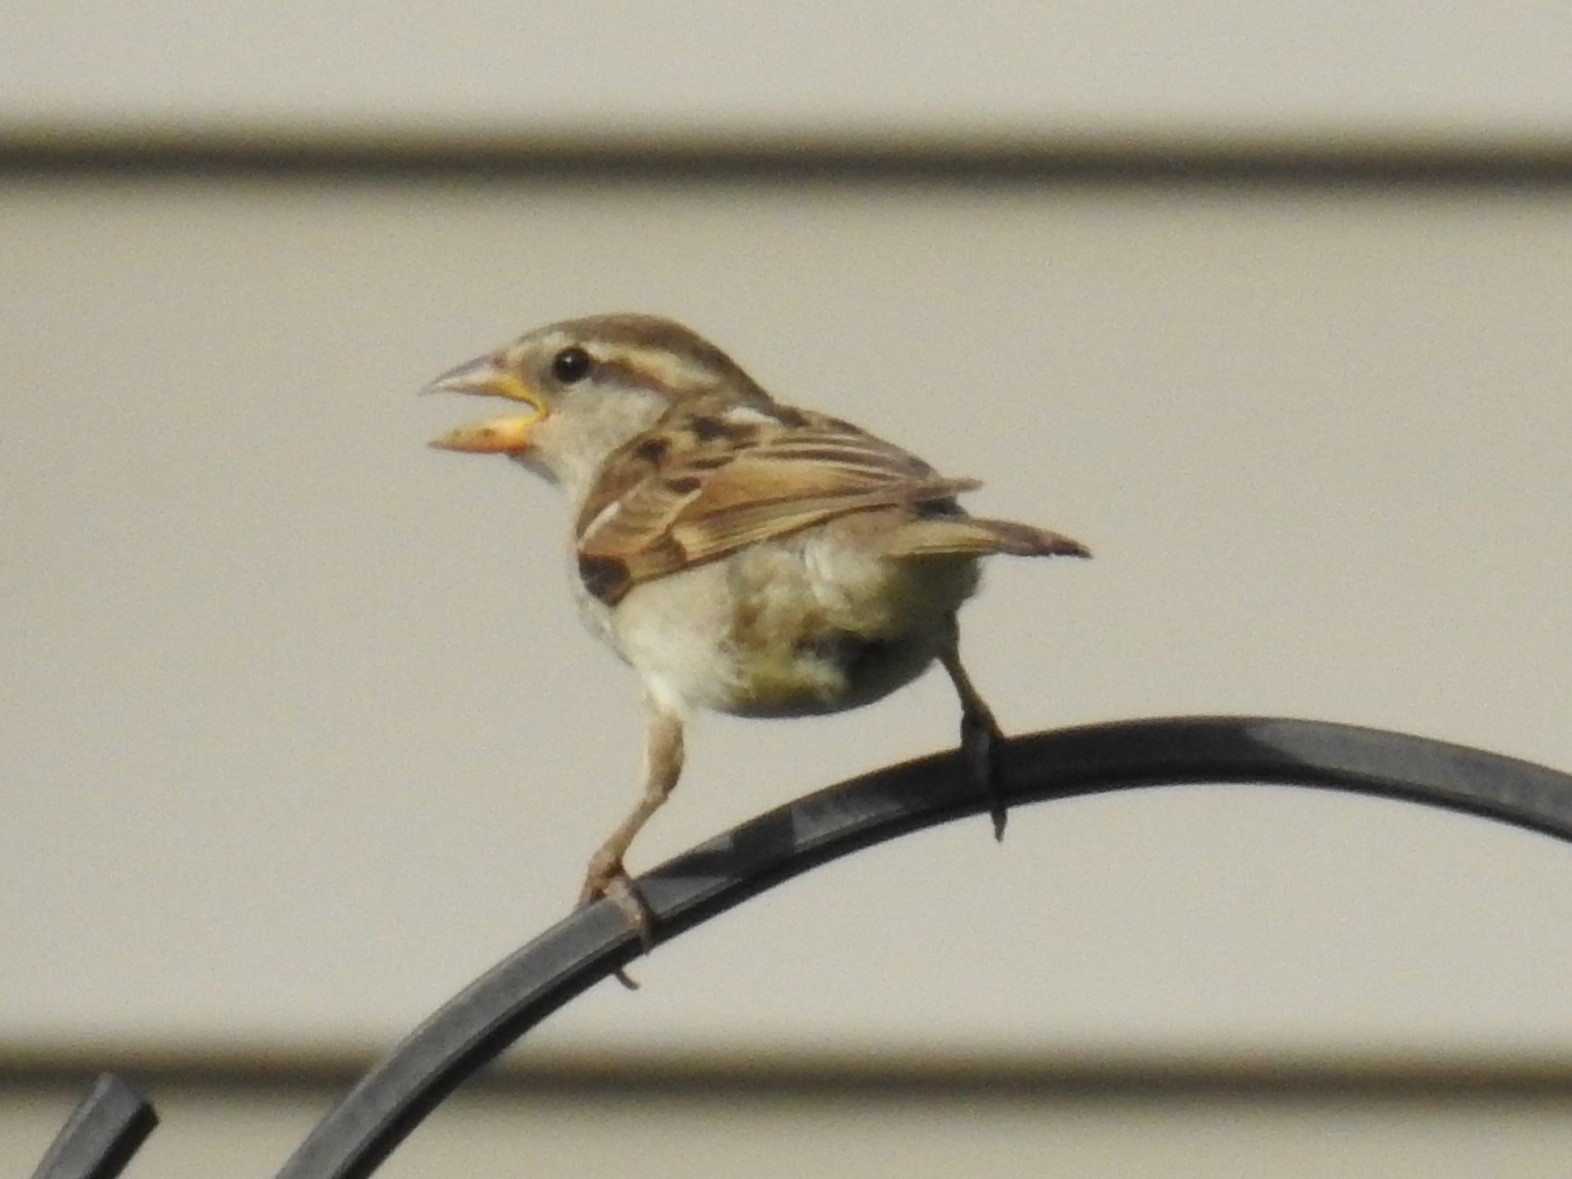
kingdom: Animalia
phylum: Chordata
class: Aves
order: Passeriformes
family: Passeridae
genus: Passer
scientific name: Passer domesticus
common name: House sparrow
